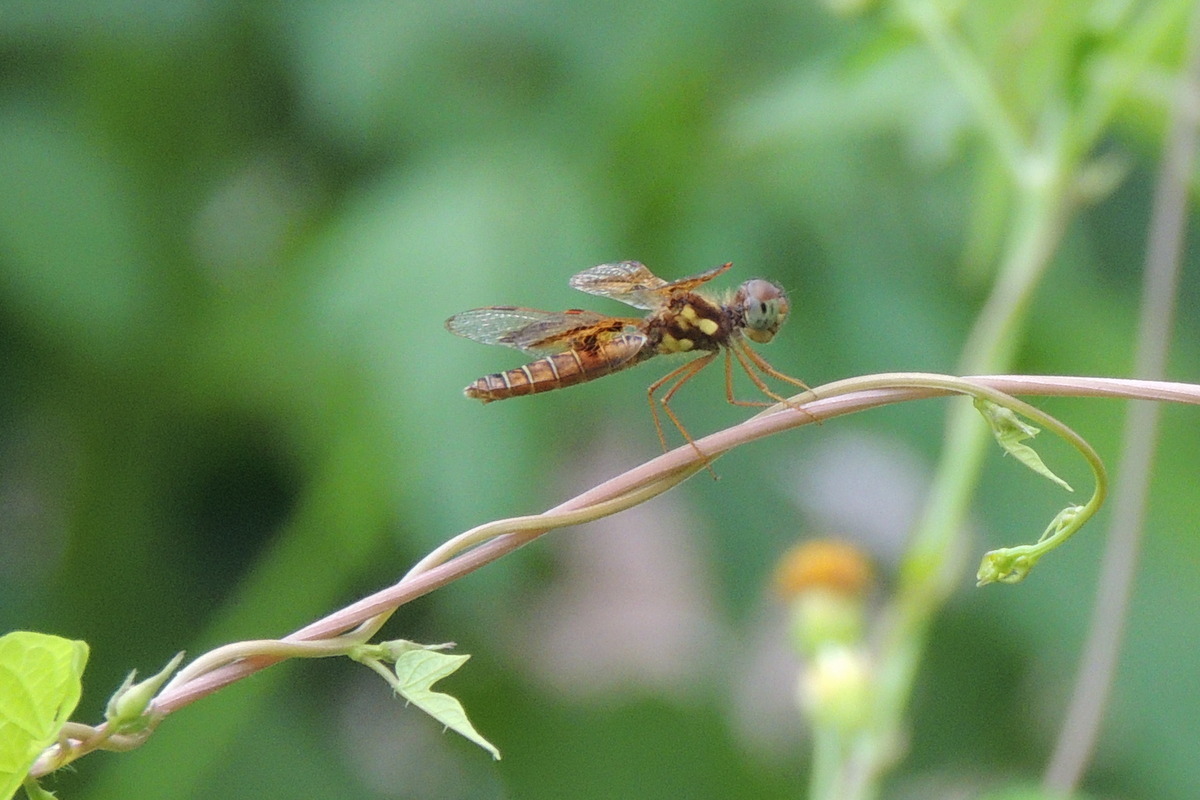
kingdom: Animalia
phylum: Arthropoda
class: Insecta
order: Odonata
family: Libellulidae
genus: Perithemis
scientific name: Perithemis tenera
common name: Eastern amberwing
